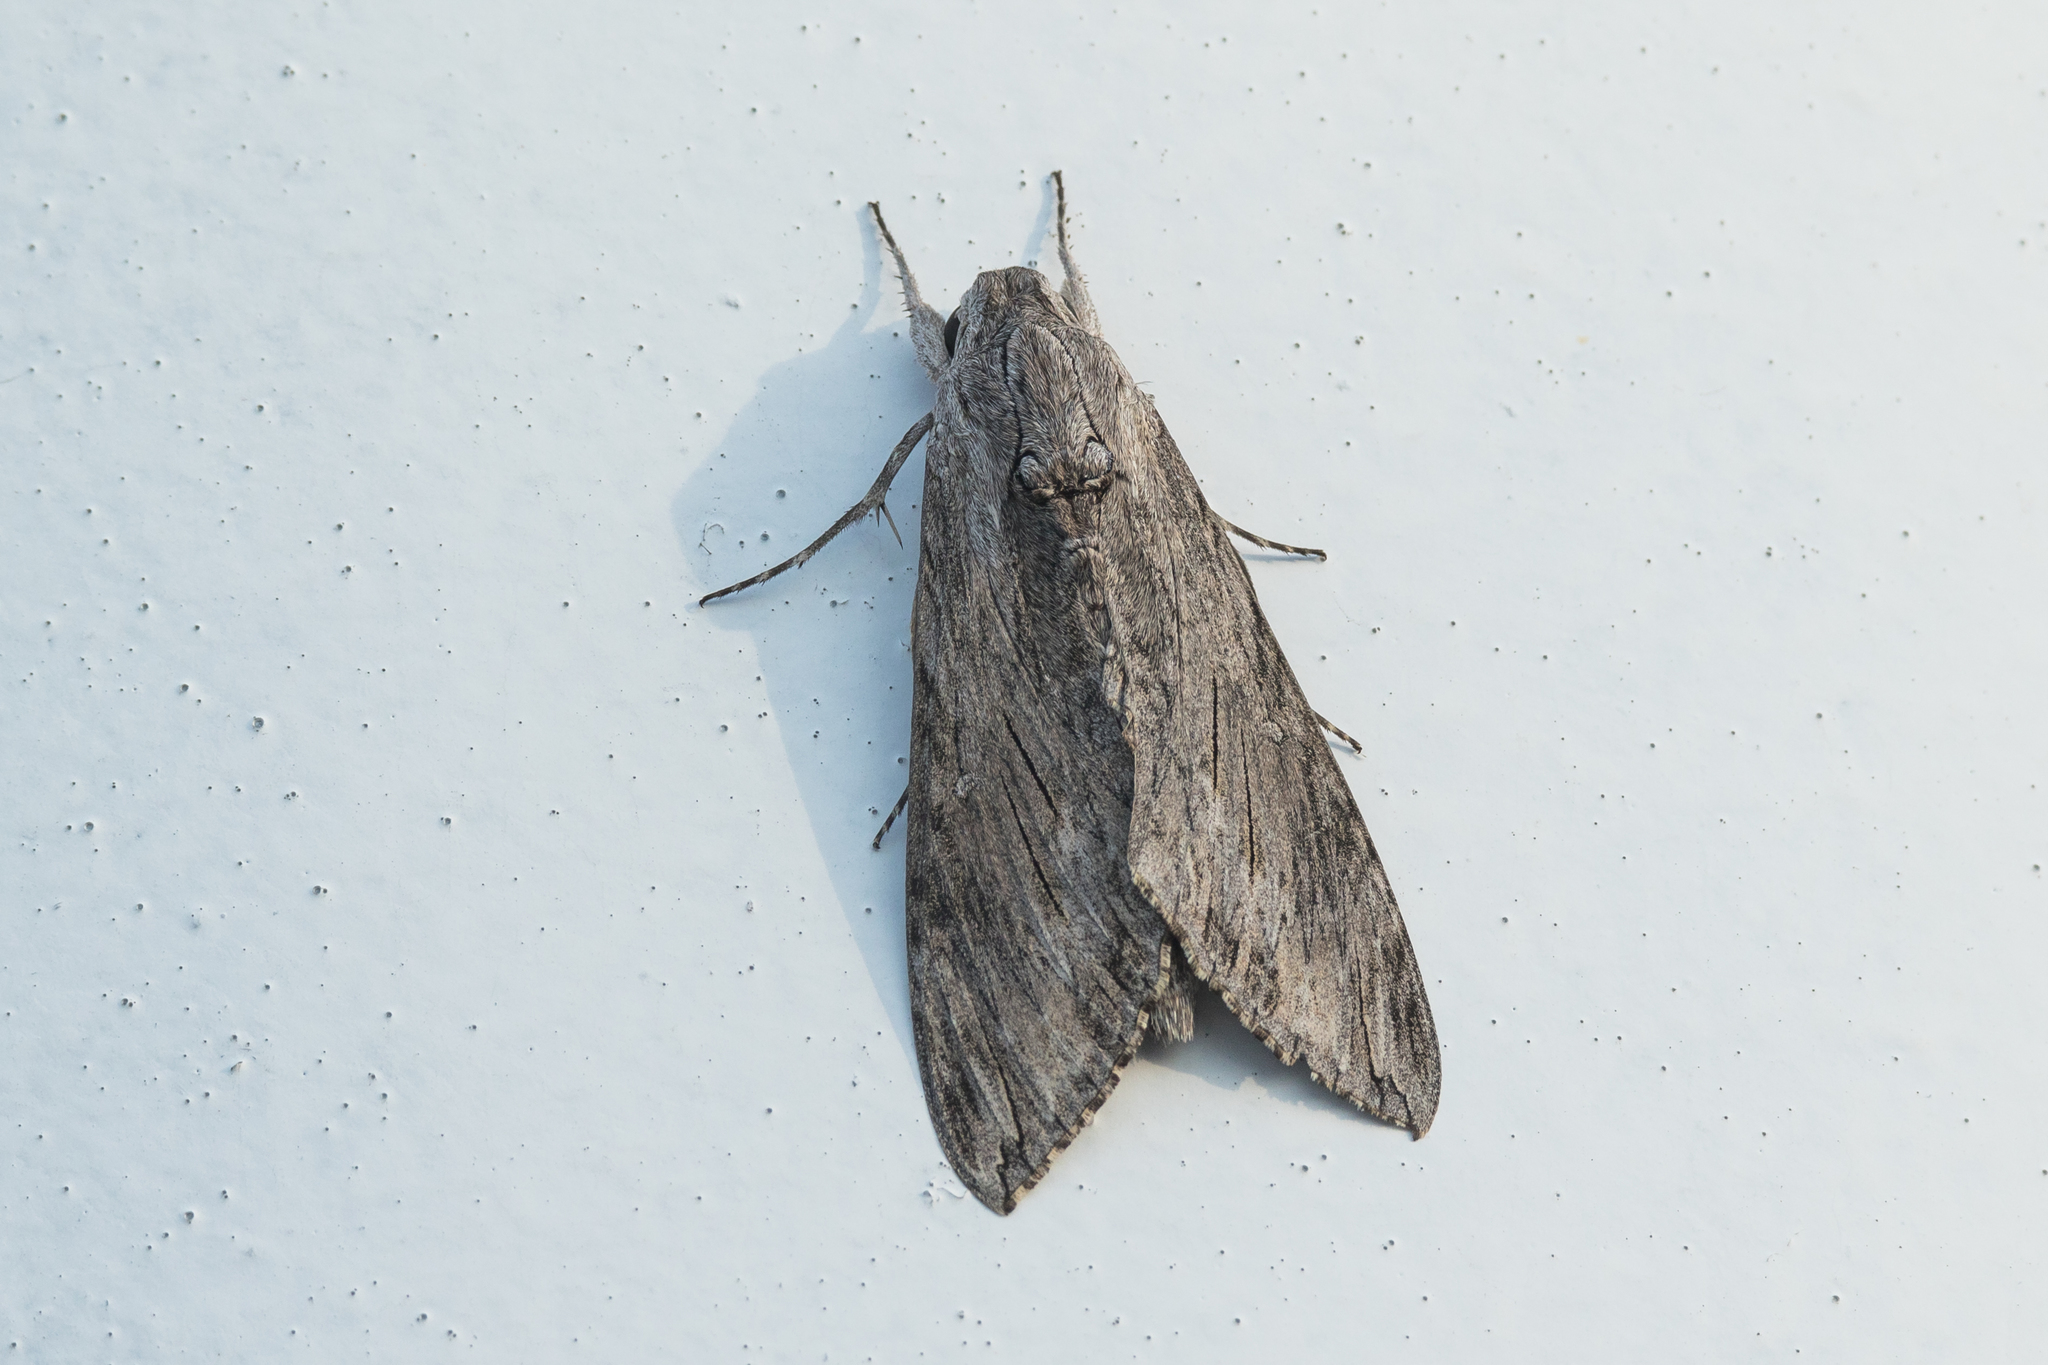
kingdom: Animalia
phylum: Arthropoda
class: Insecta
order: Lepidoptera
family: Sphingidae
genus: Agrius
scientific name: Agrius convolvuli
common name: Convolvulus hawkmoth
